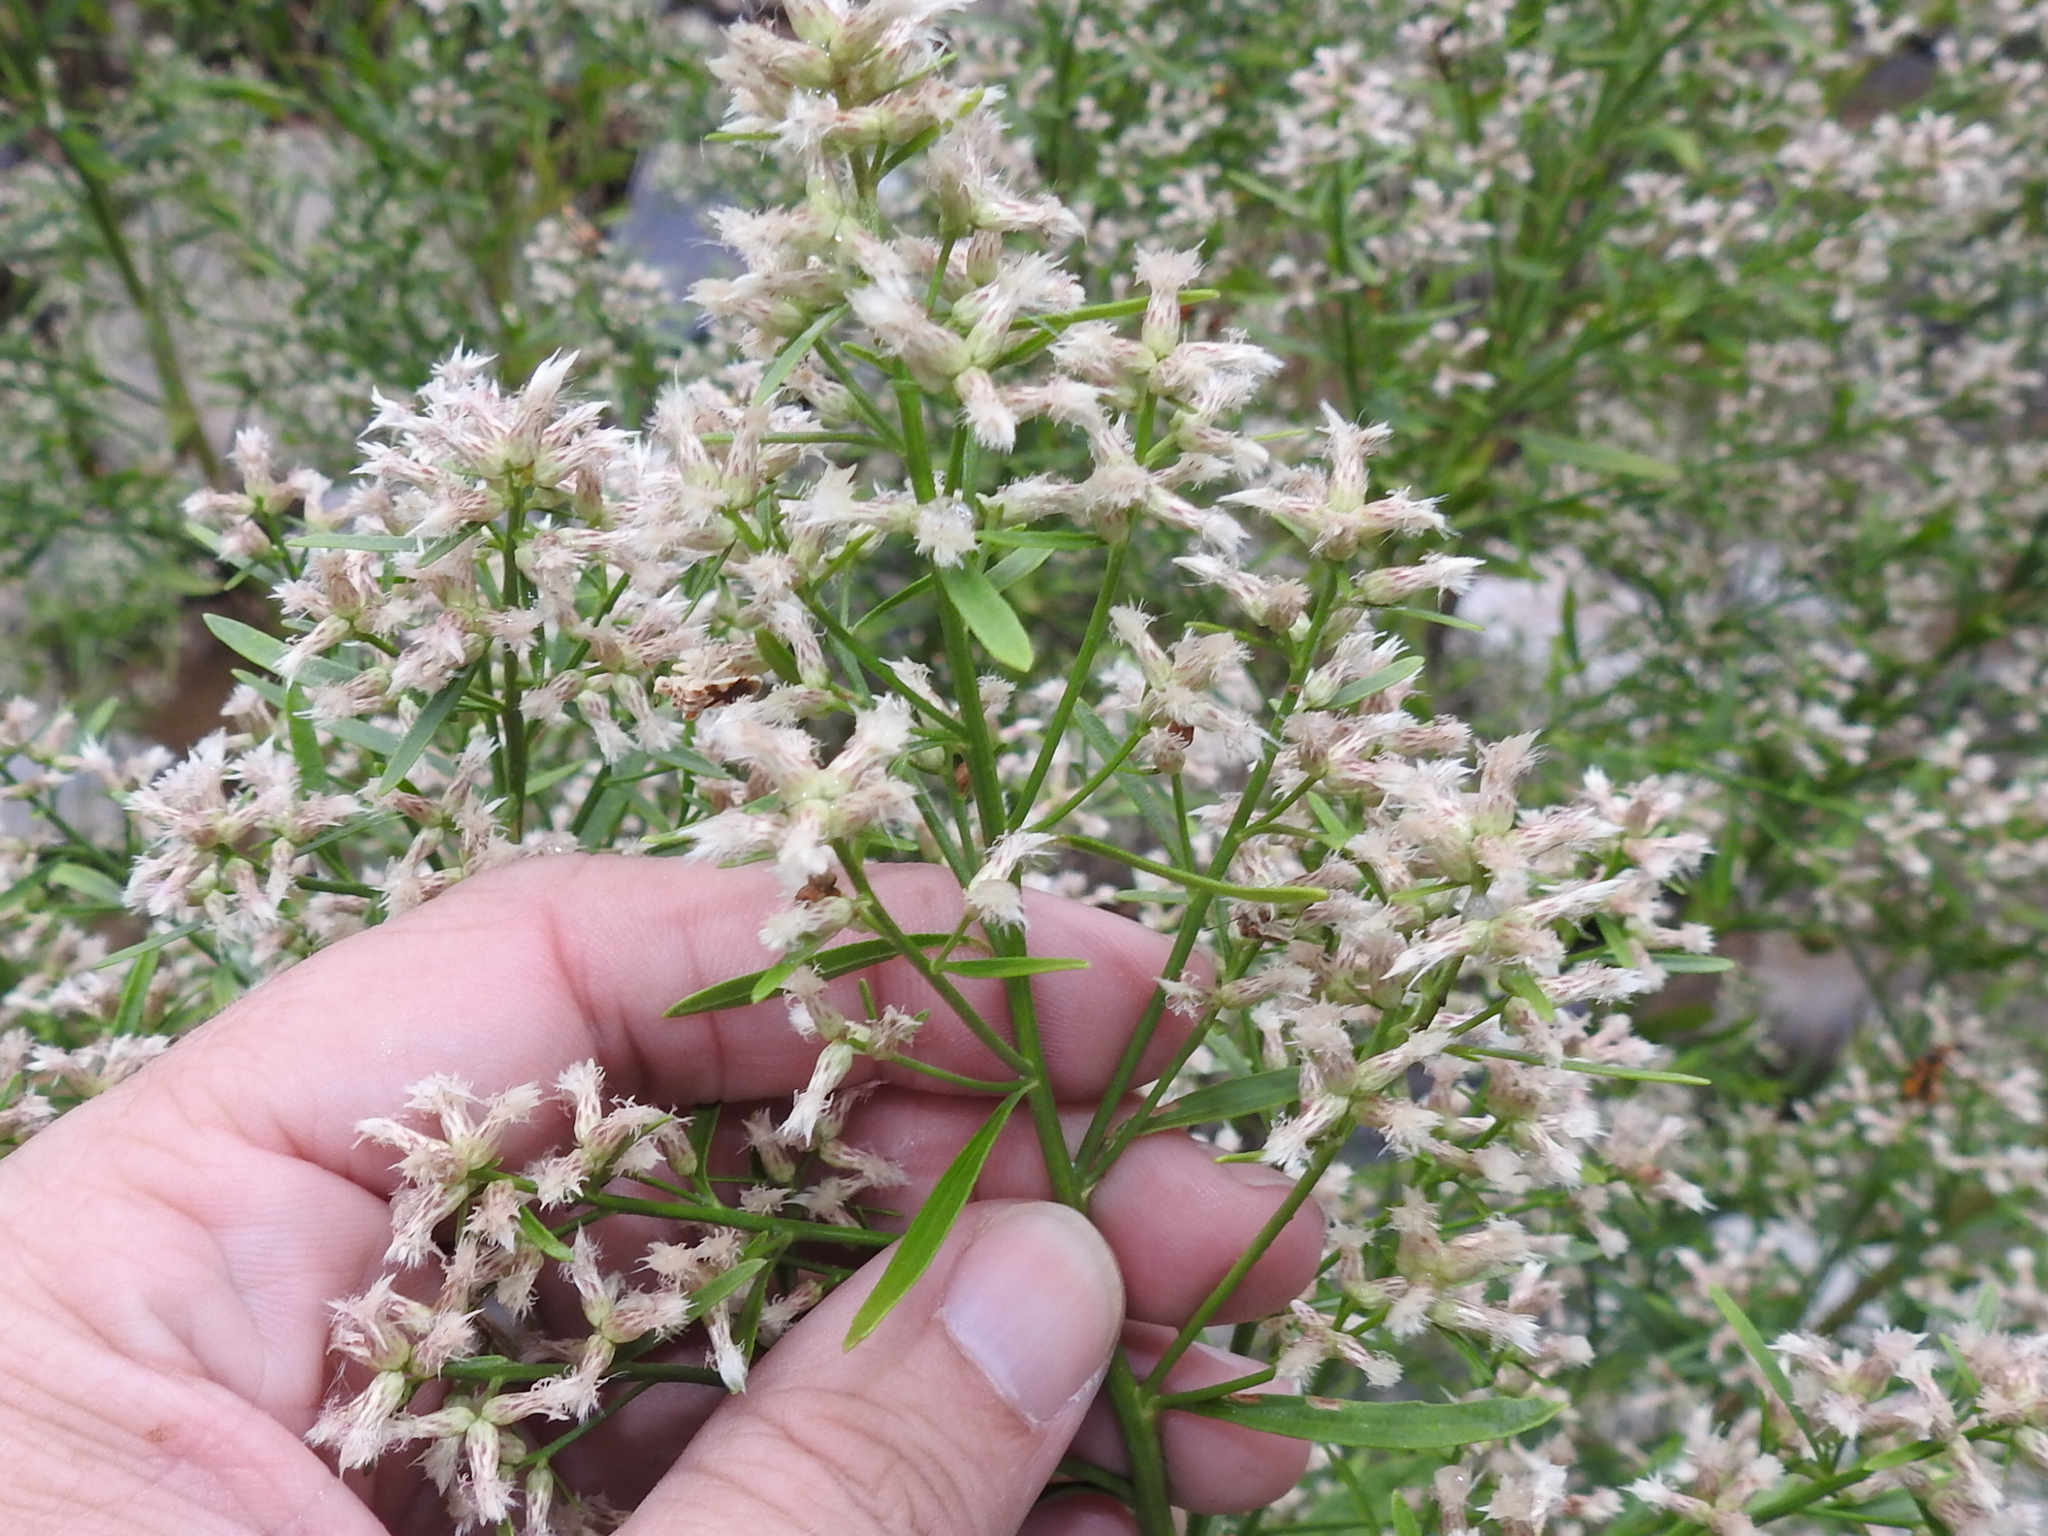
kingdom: Plantae
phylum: Tracheophyta
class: Magnoliopsida
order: Asterales
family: Asteraceae
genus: Baccharis
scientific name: Baccharis salicina
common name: Willow baccharis
